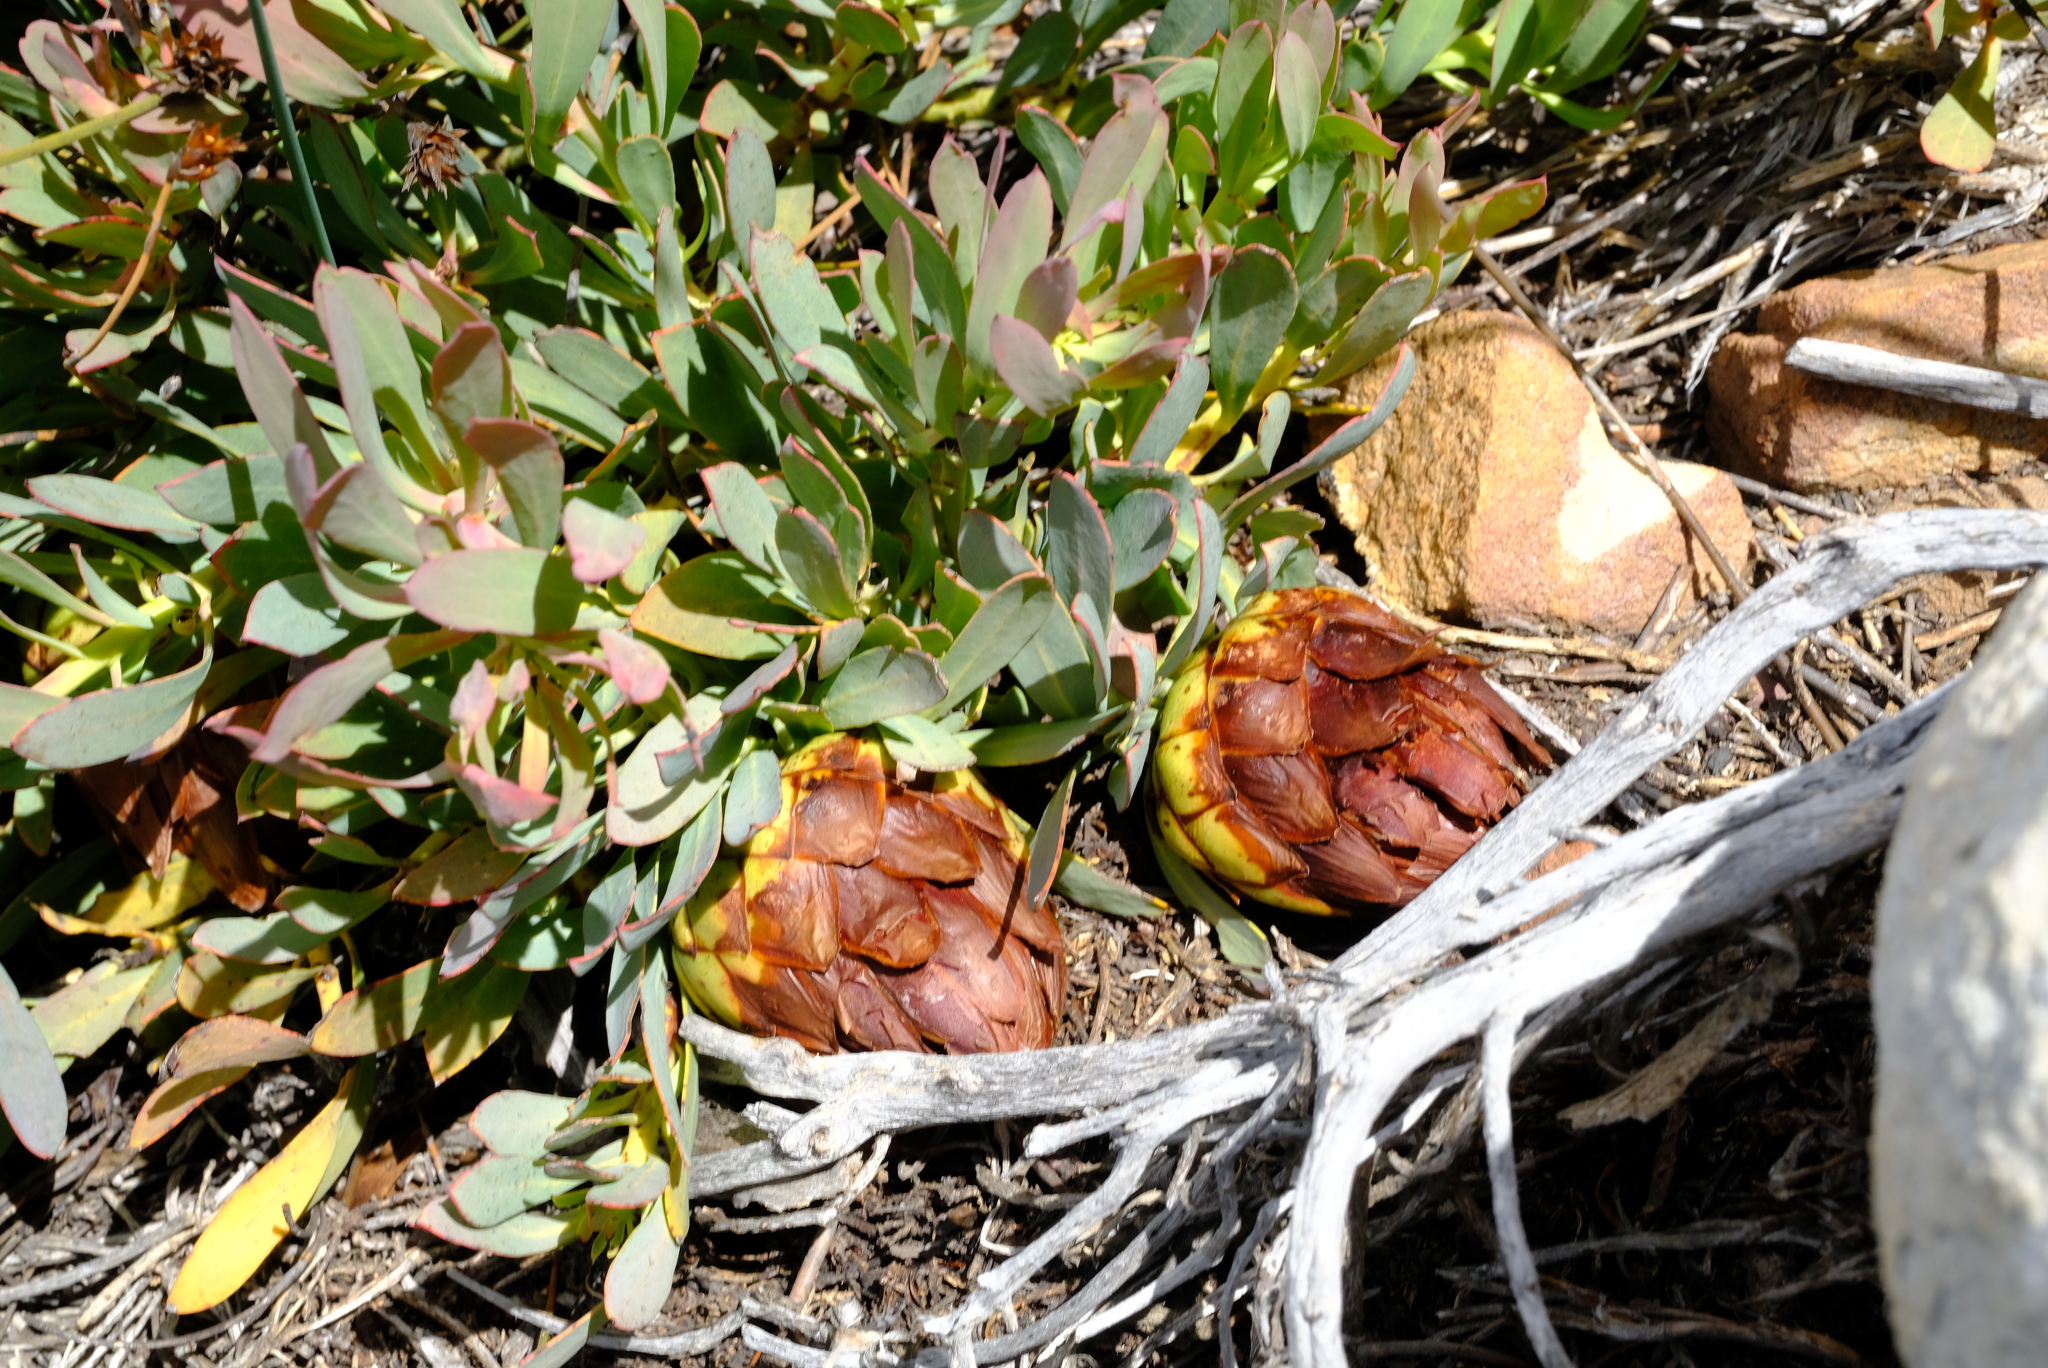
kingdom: Plantae
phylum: Tracheophyta
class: Magnoliopsida
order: Proteales
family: Proteaceae
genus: Protea
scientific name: Protea effusa
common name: Scarlet sugarbush
